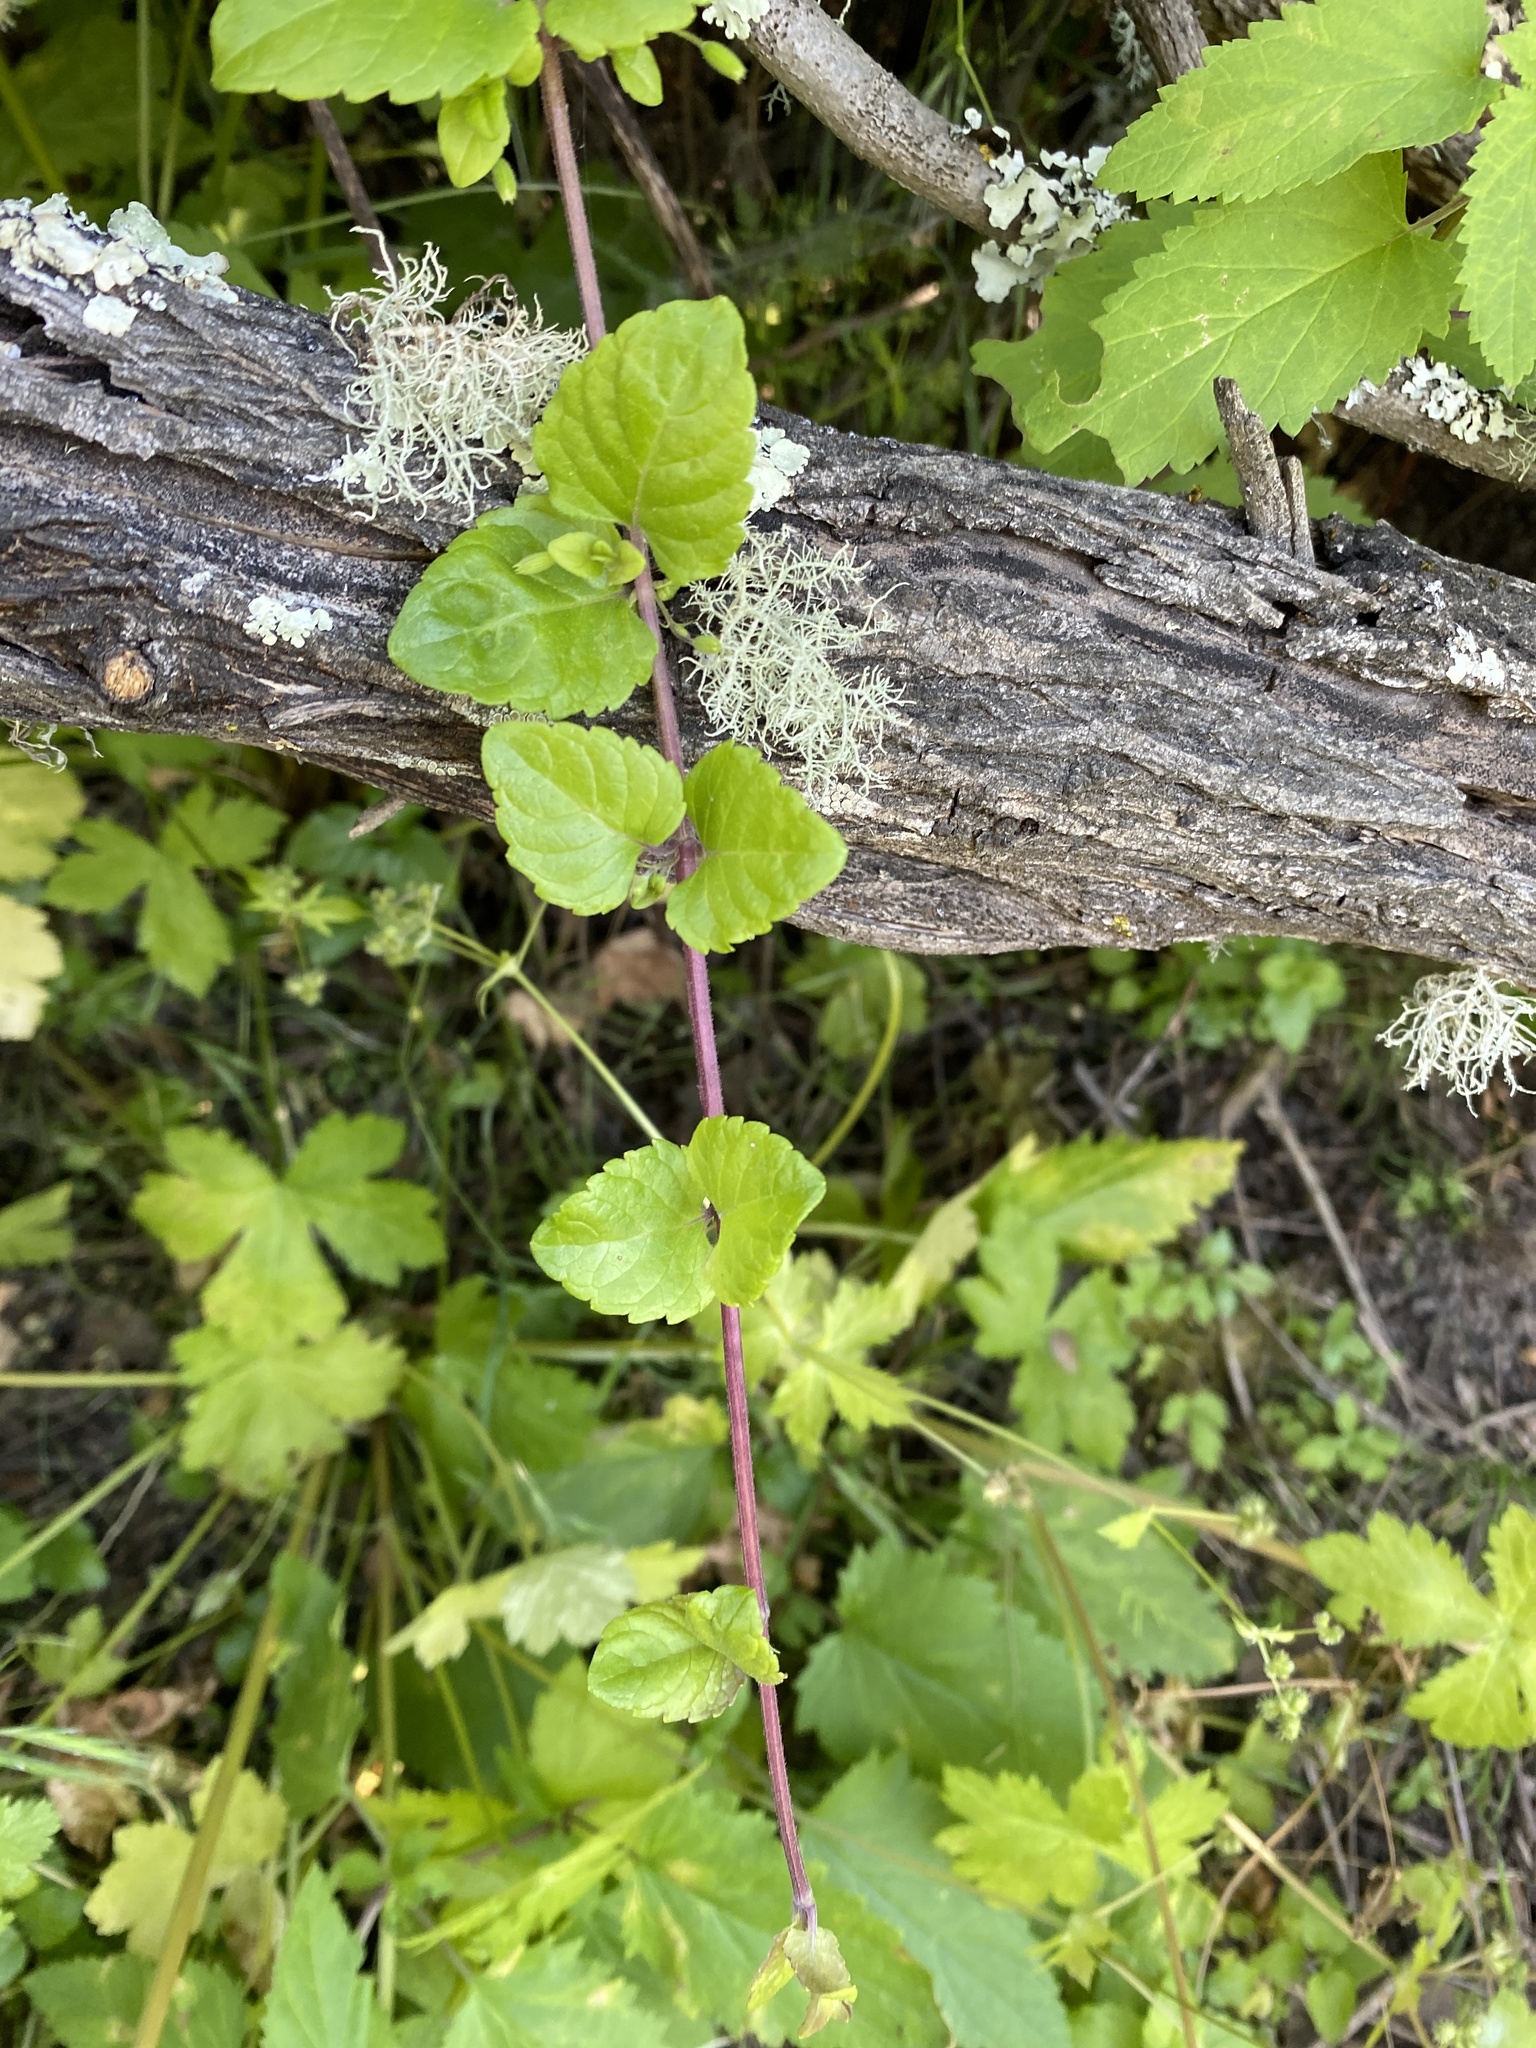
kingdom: Plantae
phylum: Tracheophyta
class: Magnoliopsida
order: Lamiales
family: Lamiaceae
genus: Micromeria
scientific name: Micromeria douglasii
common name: Yerba buena
